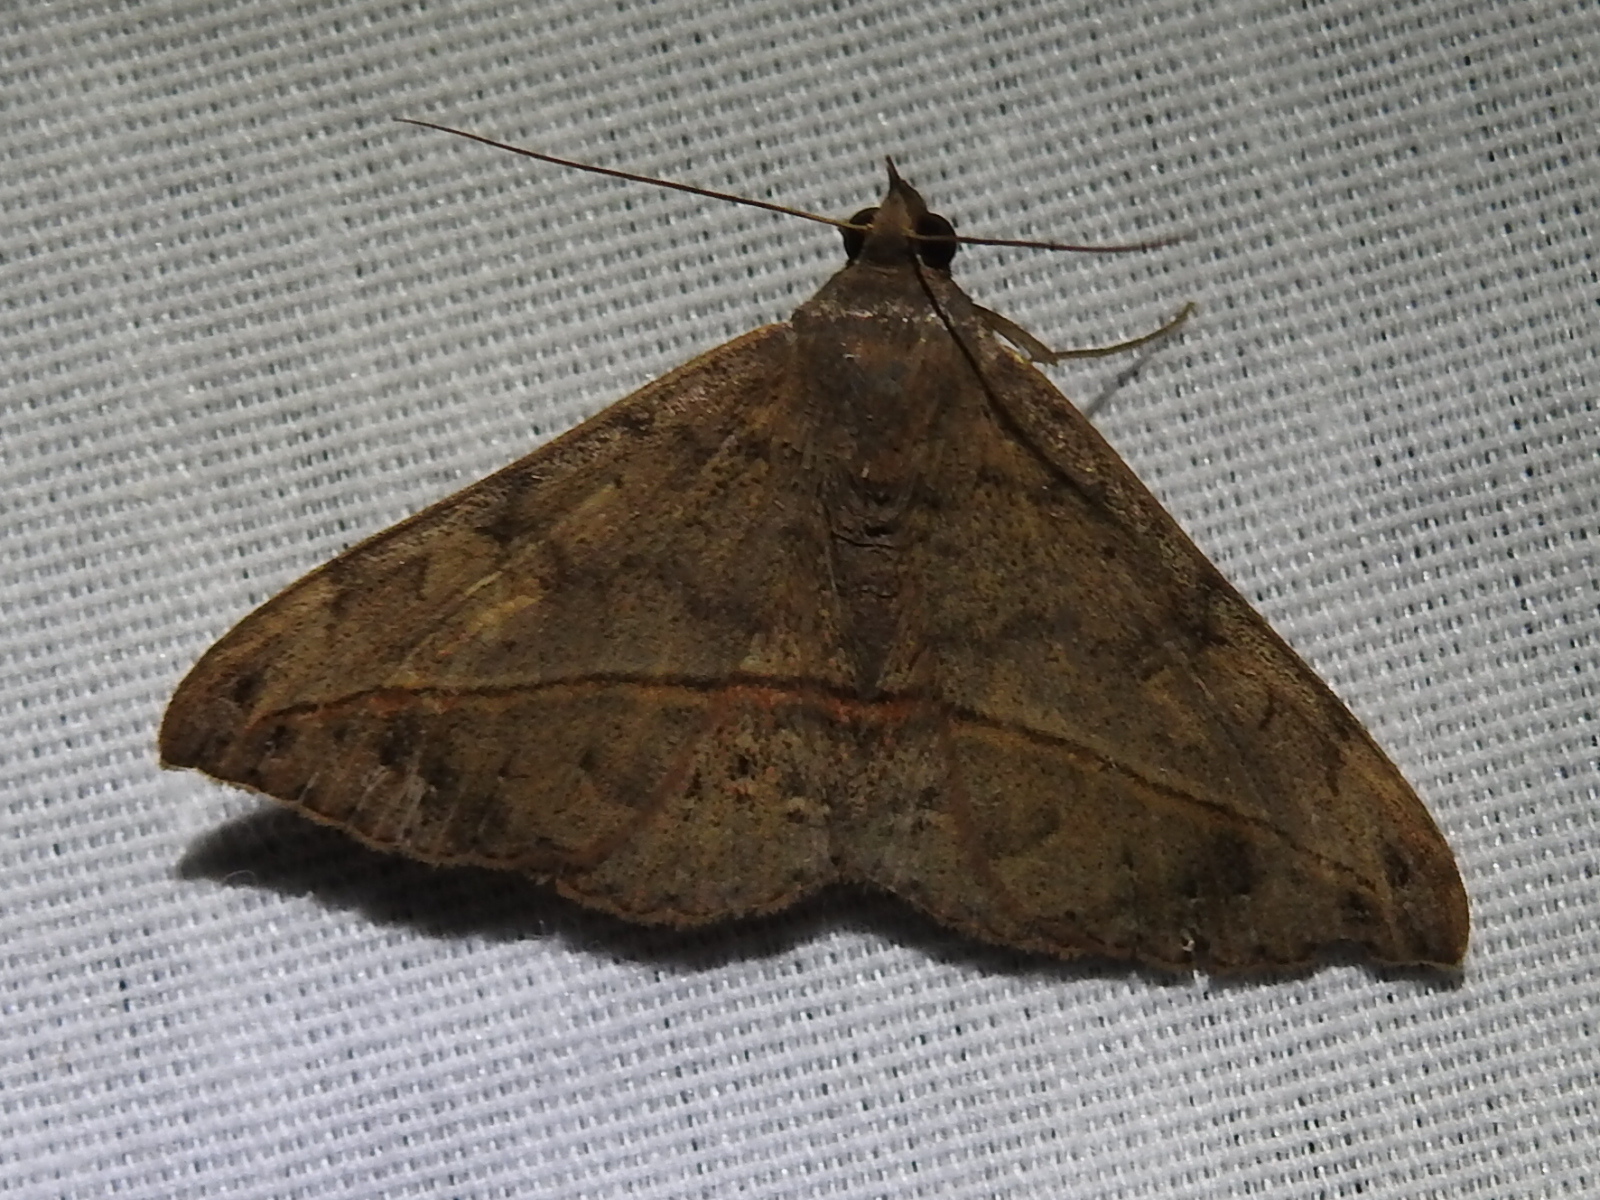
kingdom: Animalia
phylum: Arthropoda
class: Insecta
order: Lepidoptera
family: Erebidae
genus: Anticarsia
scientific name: Anticarsia gemmatalis
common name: Cutworm moth
